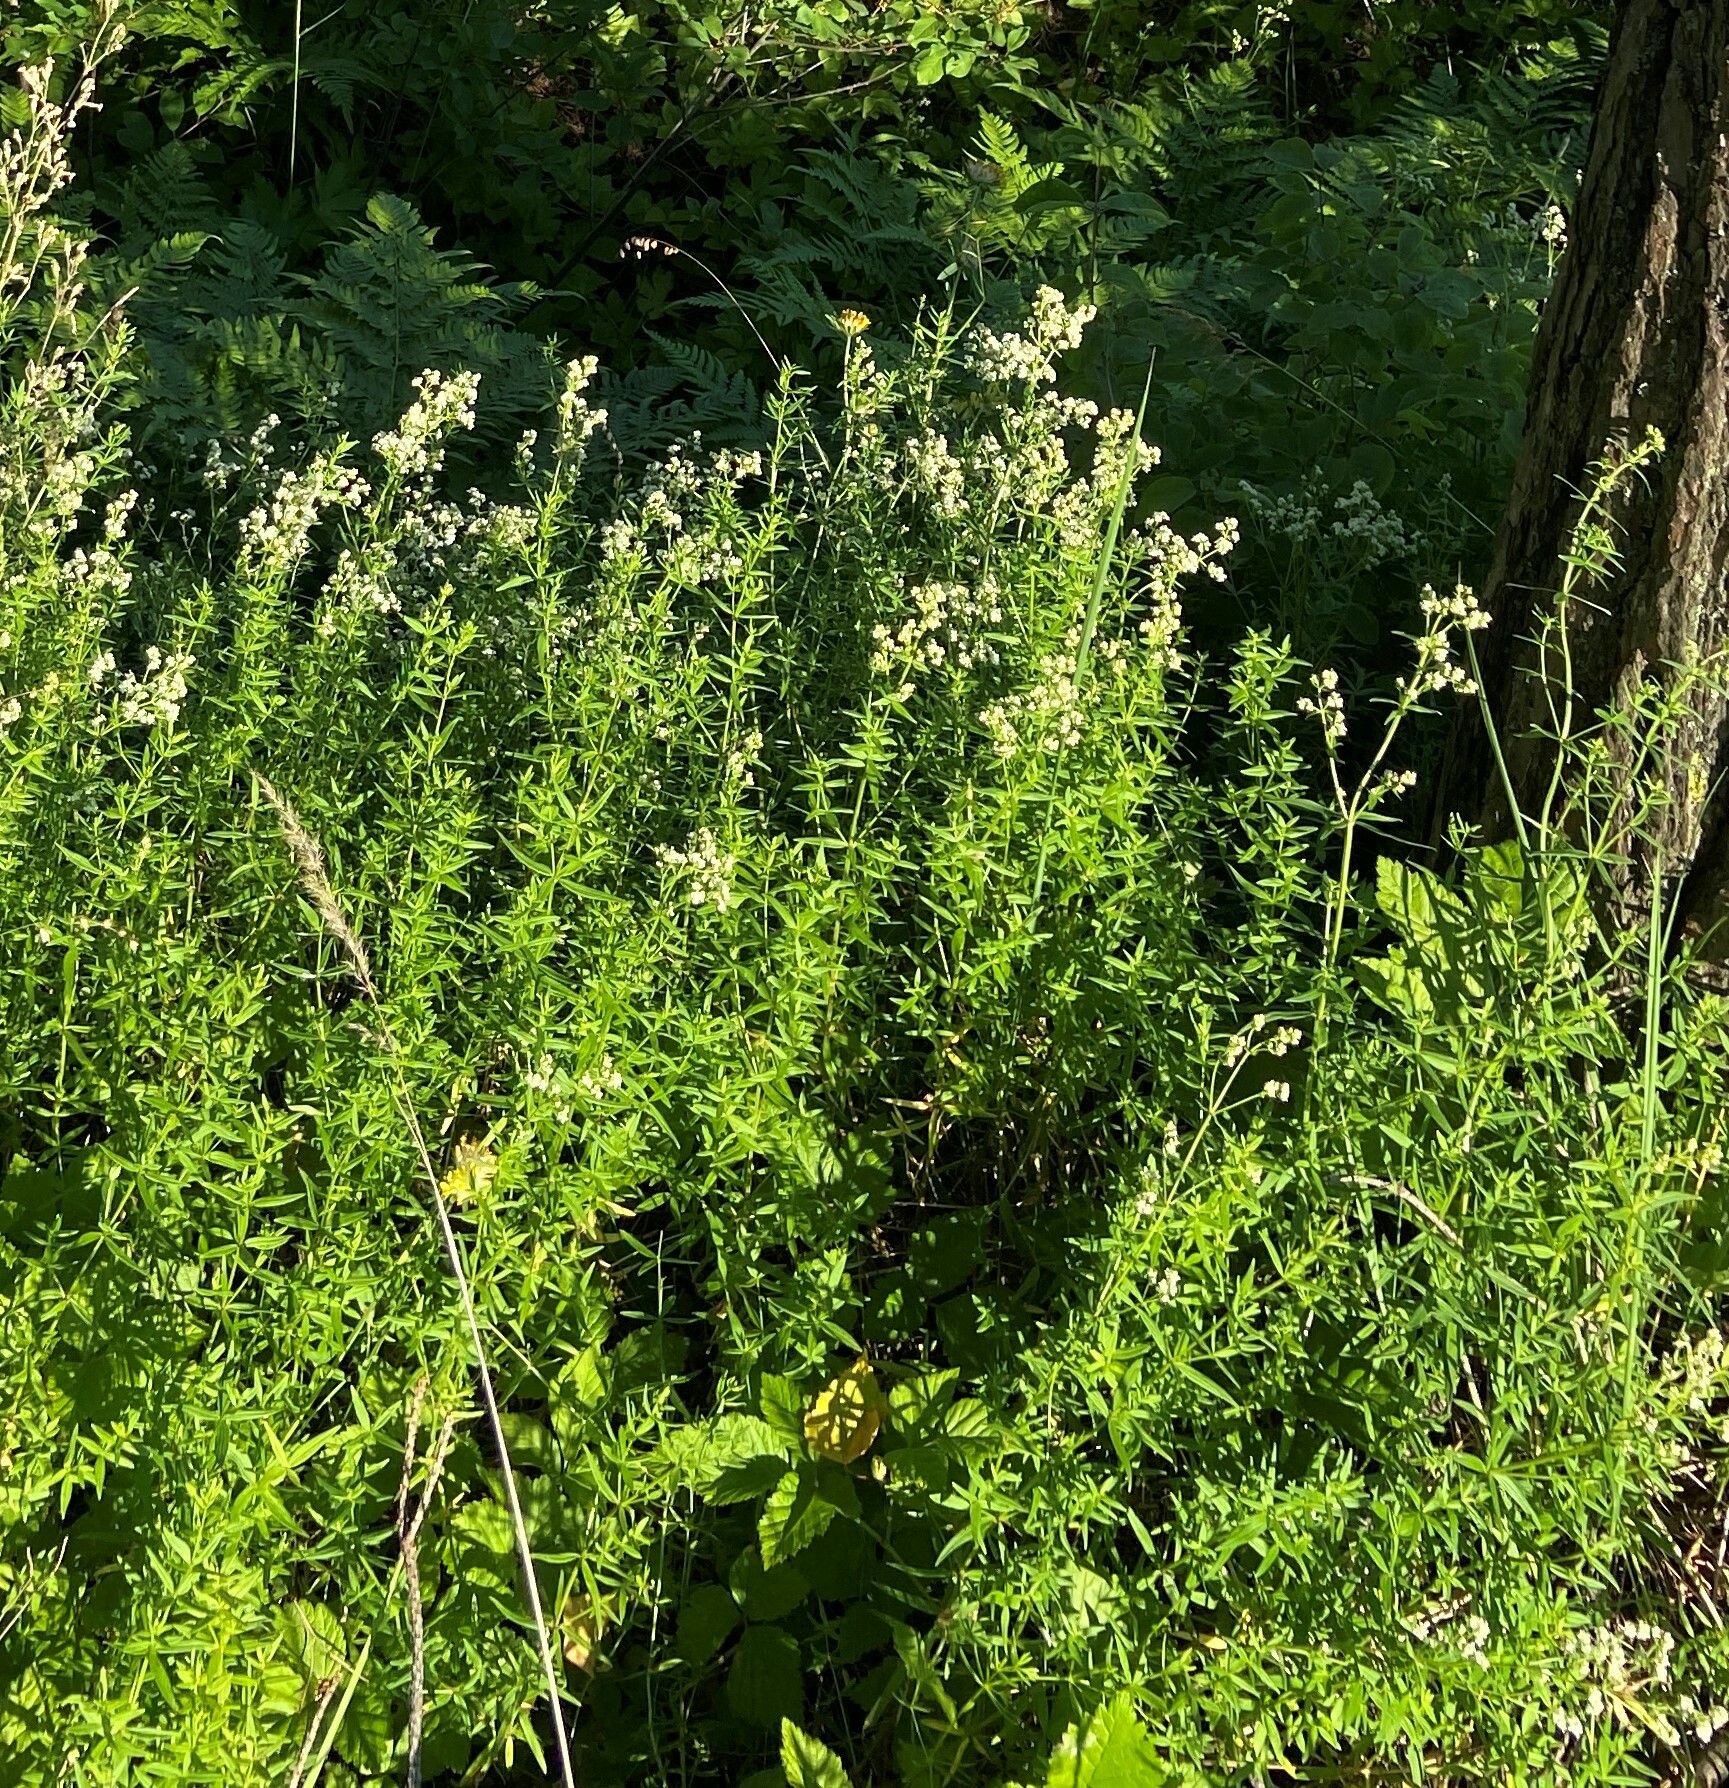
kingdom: Plantae
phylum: Tracheophyta
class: Magnoliopsida
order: Gentianales
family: Rubiaceae
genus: Galium
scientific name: Galium boreale
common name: Northern bedstraw
